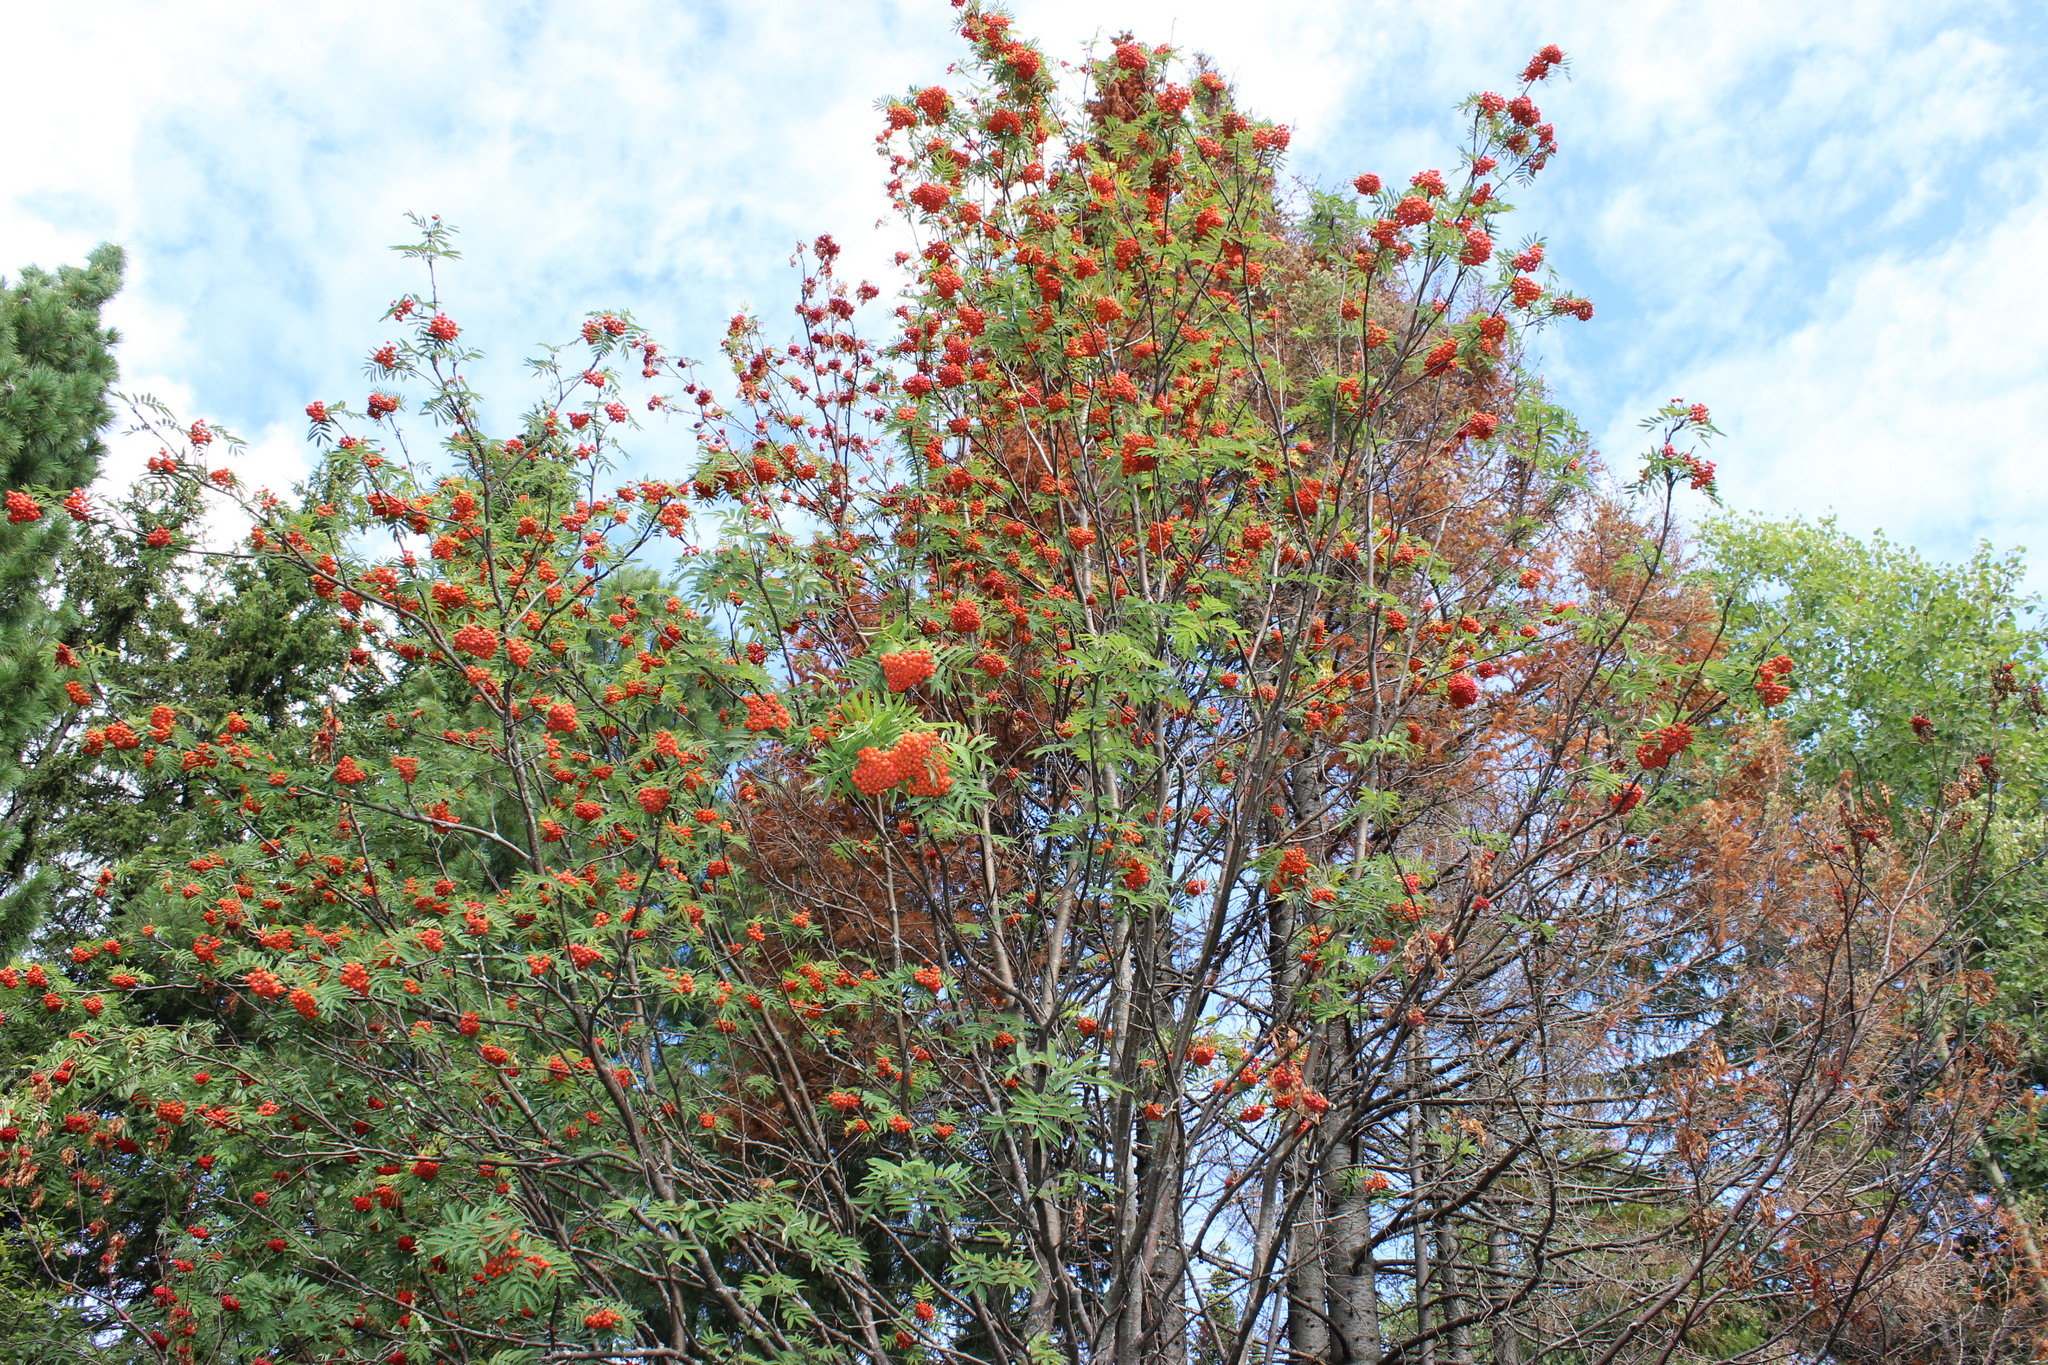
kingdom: Plantae
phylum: Tracheophyta
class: Magnoliopsida
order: Rosales
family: Rosaceae
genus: Sorbus
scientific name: Sorbus aucuparia
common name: Rowan
